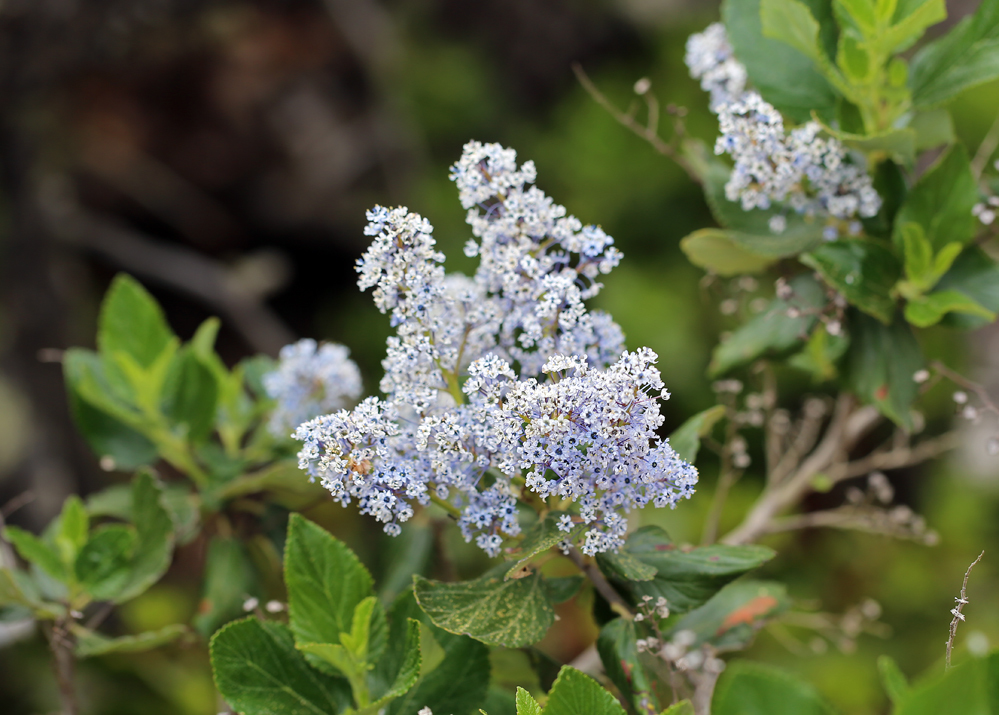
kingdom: Plantae
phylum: Tracheophyta
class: Magnoliopsida
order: Rosales
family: Rhamnaceae
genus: Ceanothus
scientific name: Ceanothus arboreus
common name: Catalina mountain-lilac
